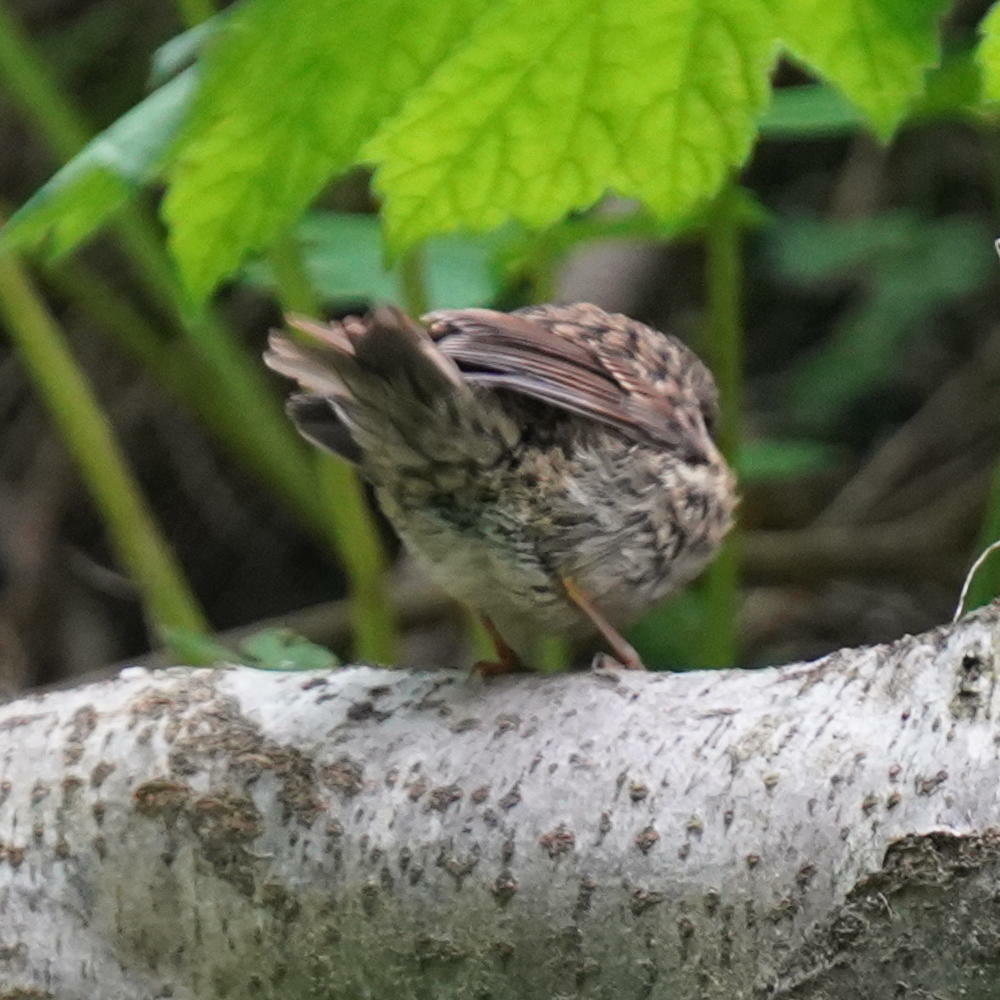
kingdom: Animalia
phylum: Chordata
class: Aves
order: Passeriformes
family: Prunellidae
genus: Prunella
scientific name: Prunella modularis
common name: Dunnock
